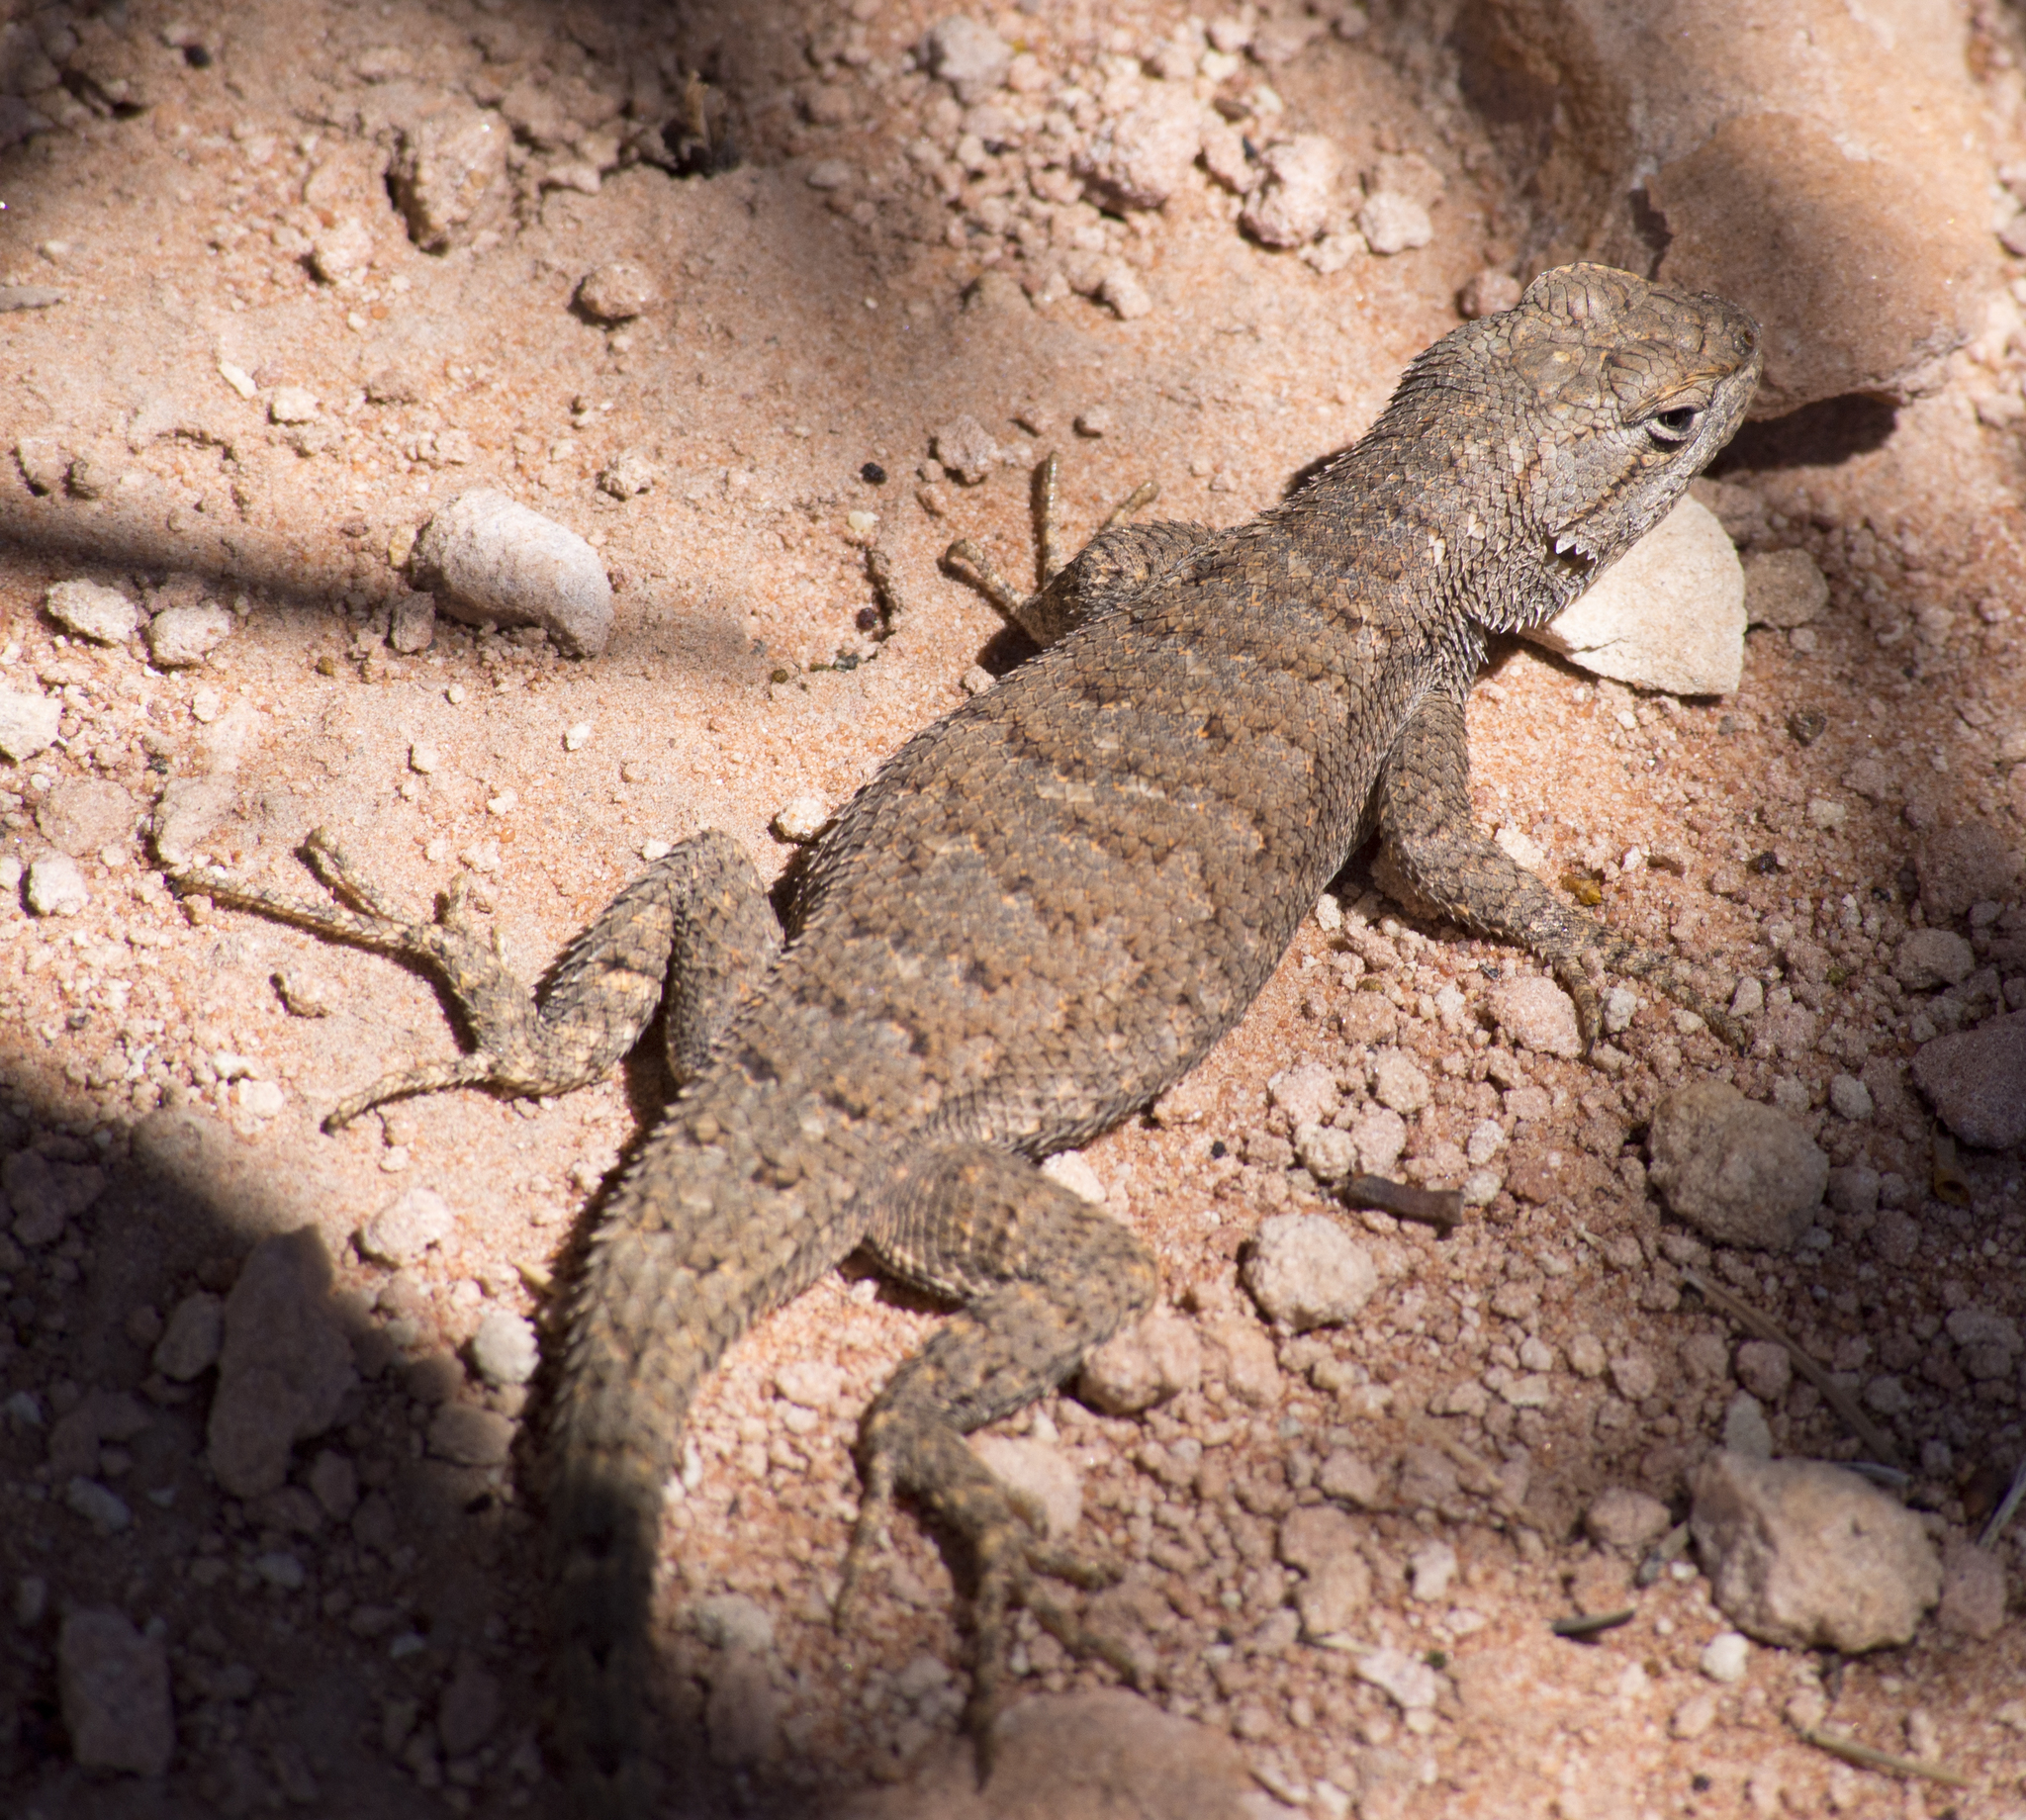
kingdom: Animalia
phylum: Chordata
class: Squamata
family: Phrynosomatidae
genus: Sceloporus
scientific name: Sceloporus tristichus
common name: Plateau fence lizard
